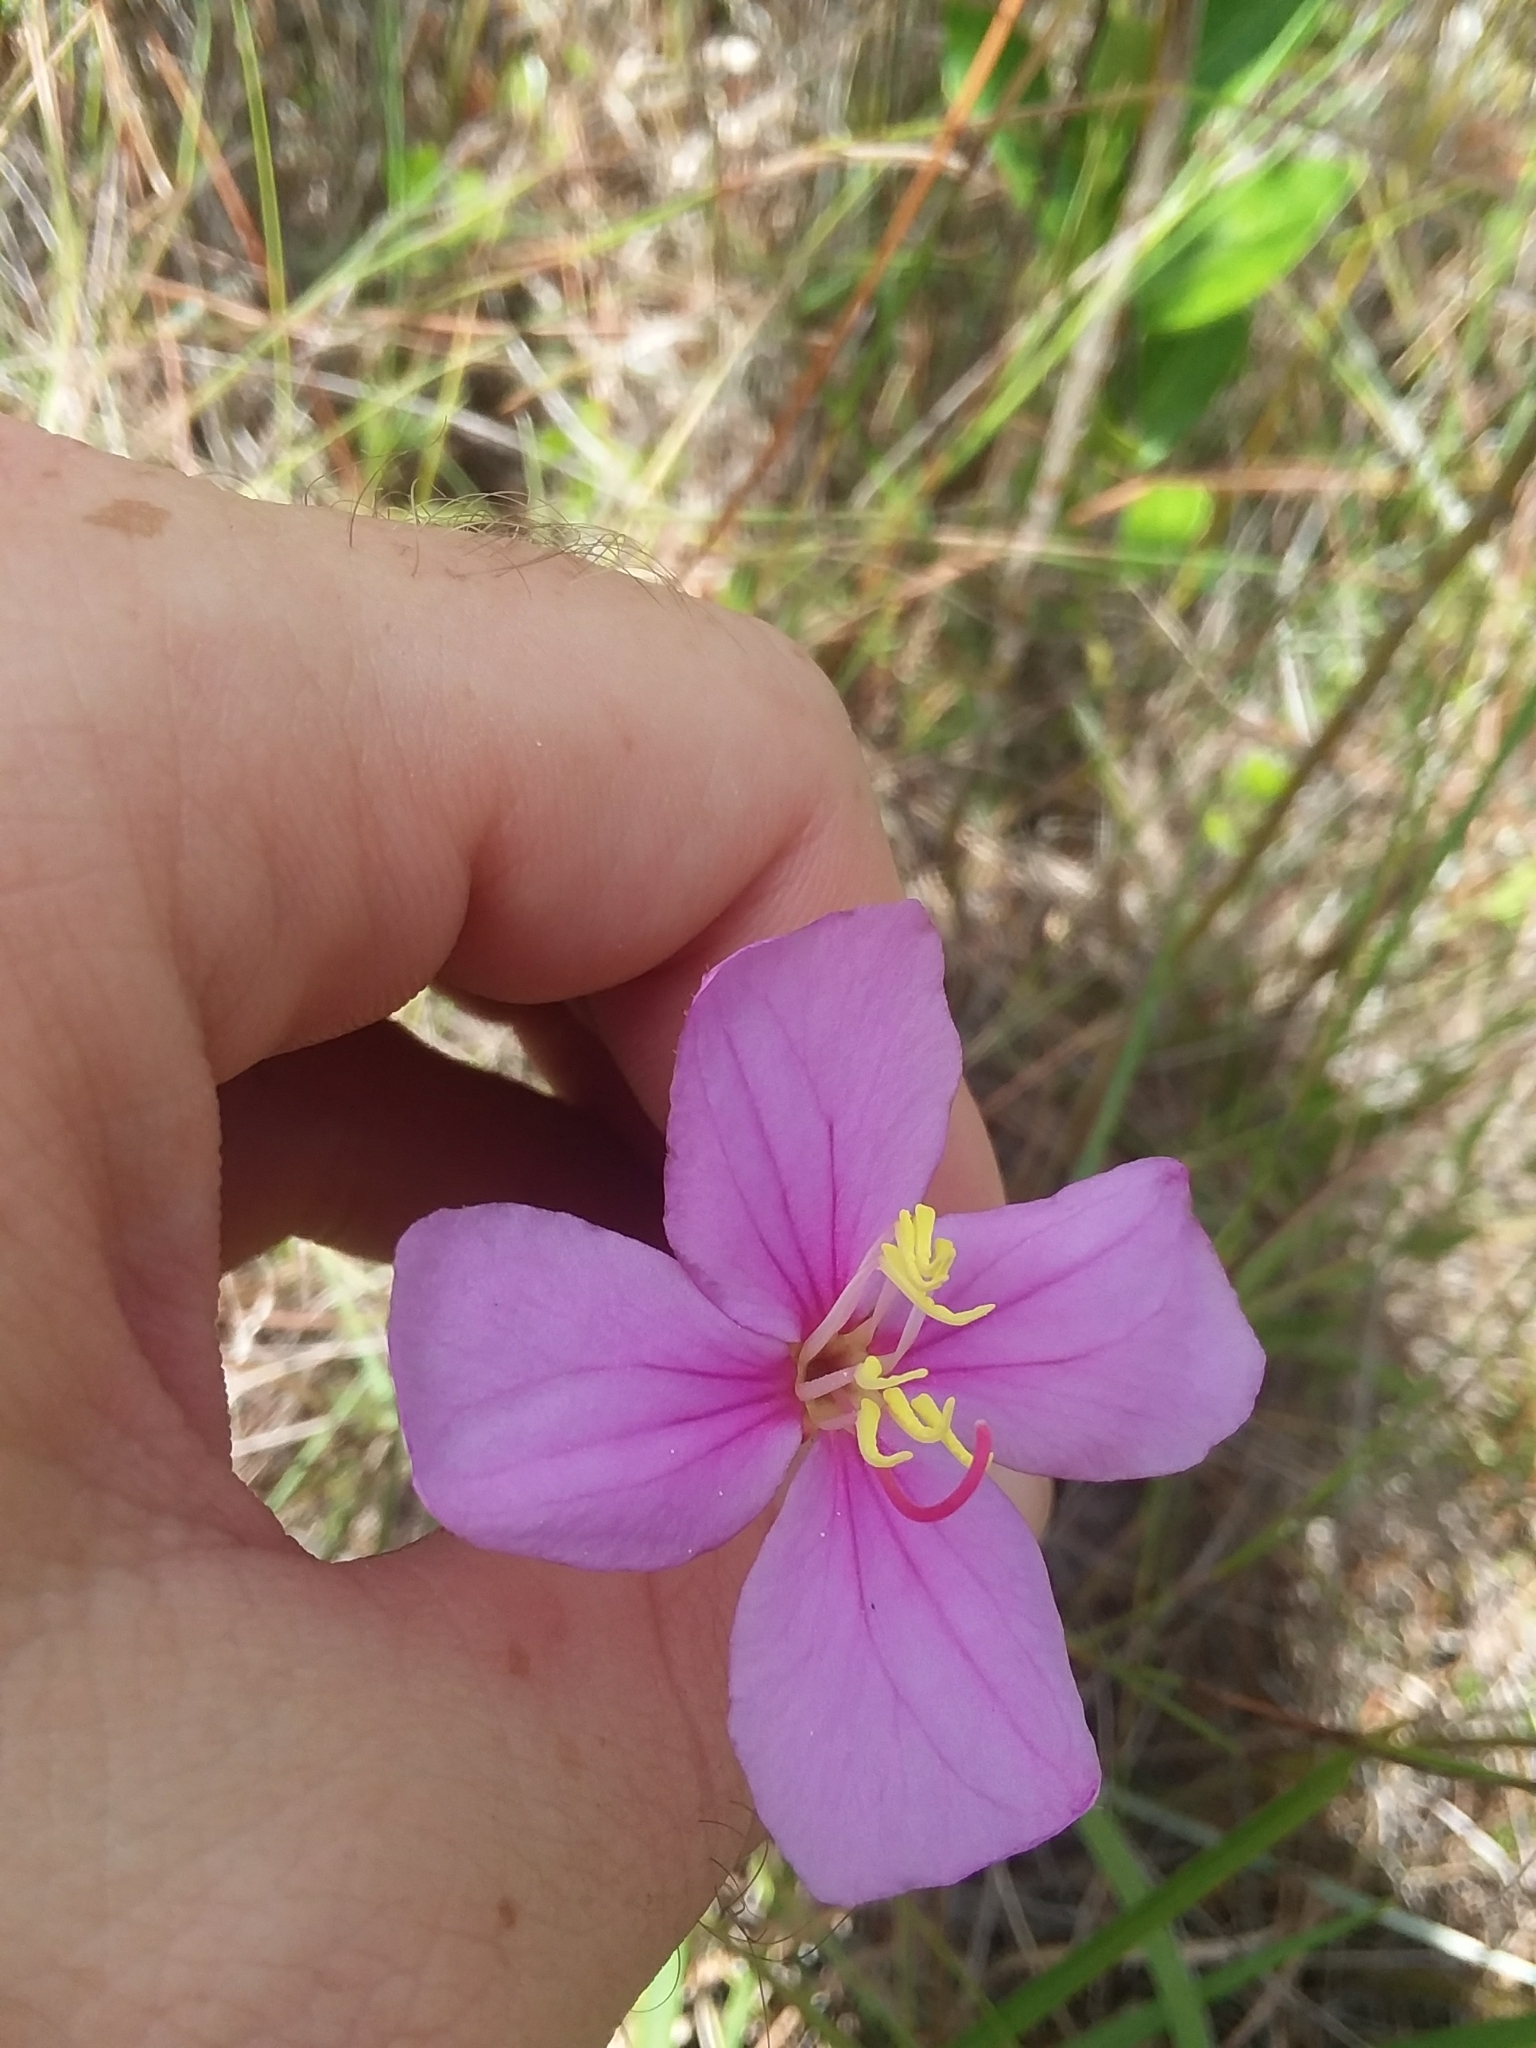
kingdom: Plantae
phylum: Tracheophyta
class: Magnoliopsida
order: Myrtales
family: Melastomataceae
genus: Rhexia
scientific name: Rhexia alifanus
